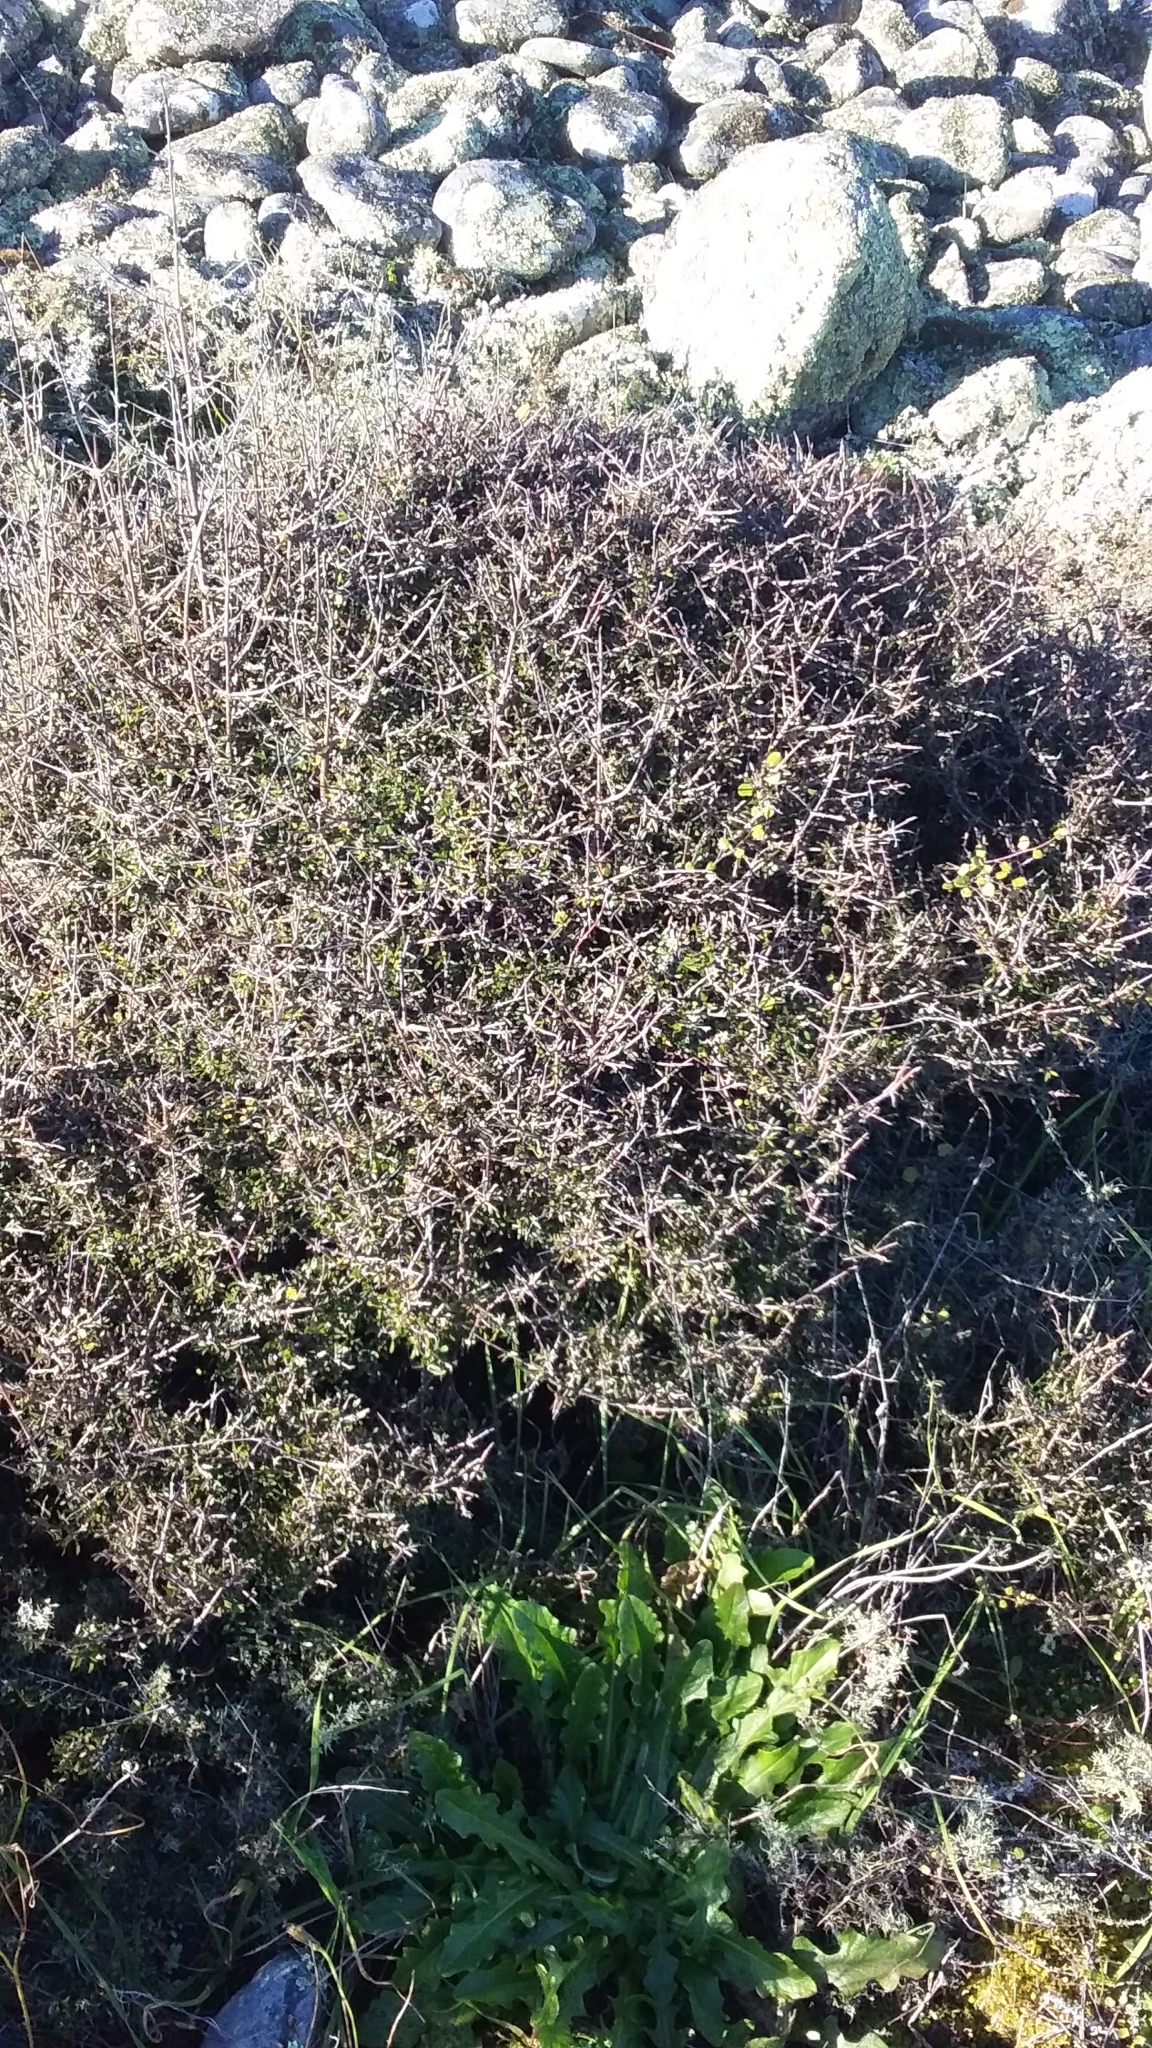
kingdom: Plantae
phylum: Tracheophyta
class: Magnoliopsida
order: Gentianales
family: Rubiaceae
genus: Coprosma
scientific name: Coprosma propinqua
